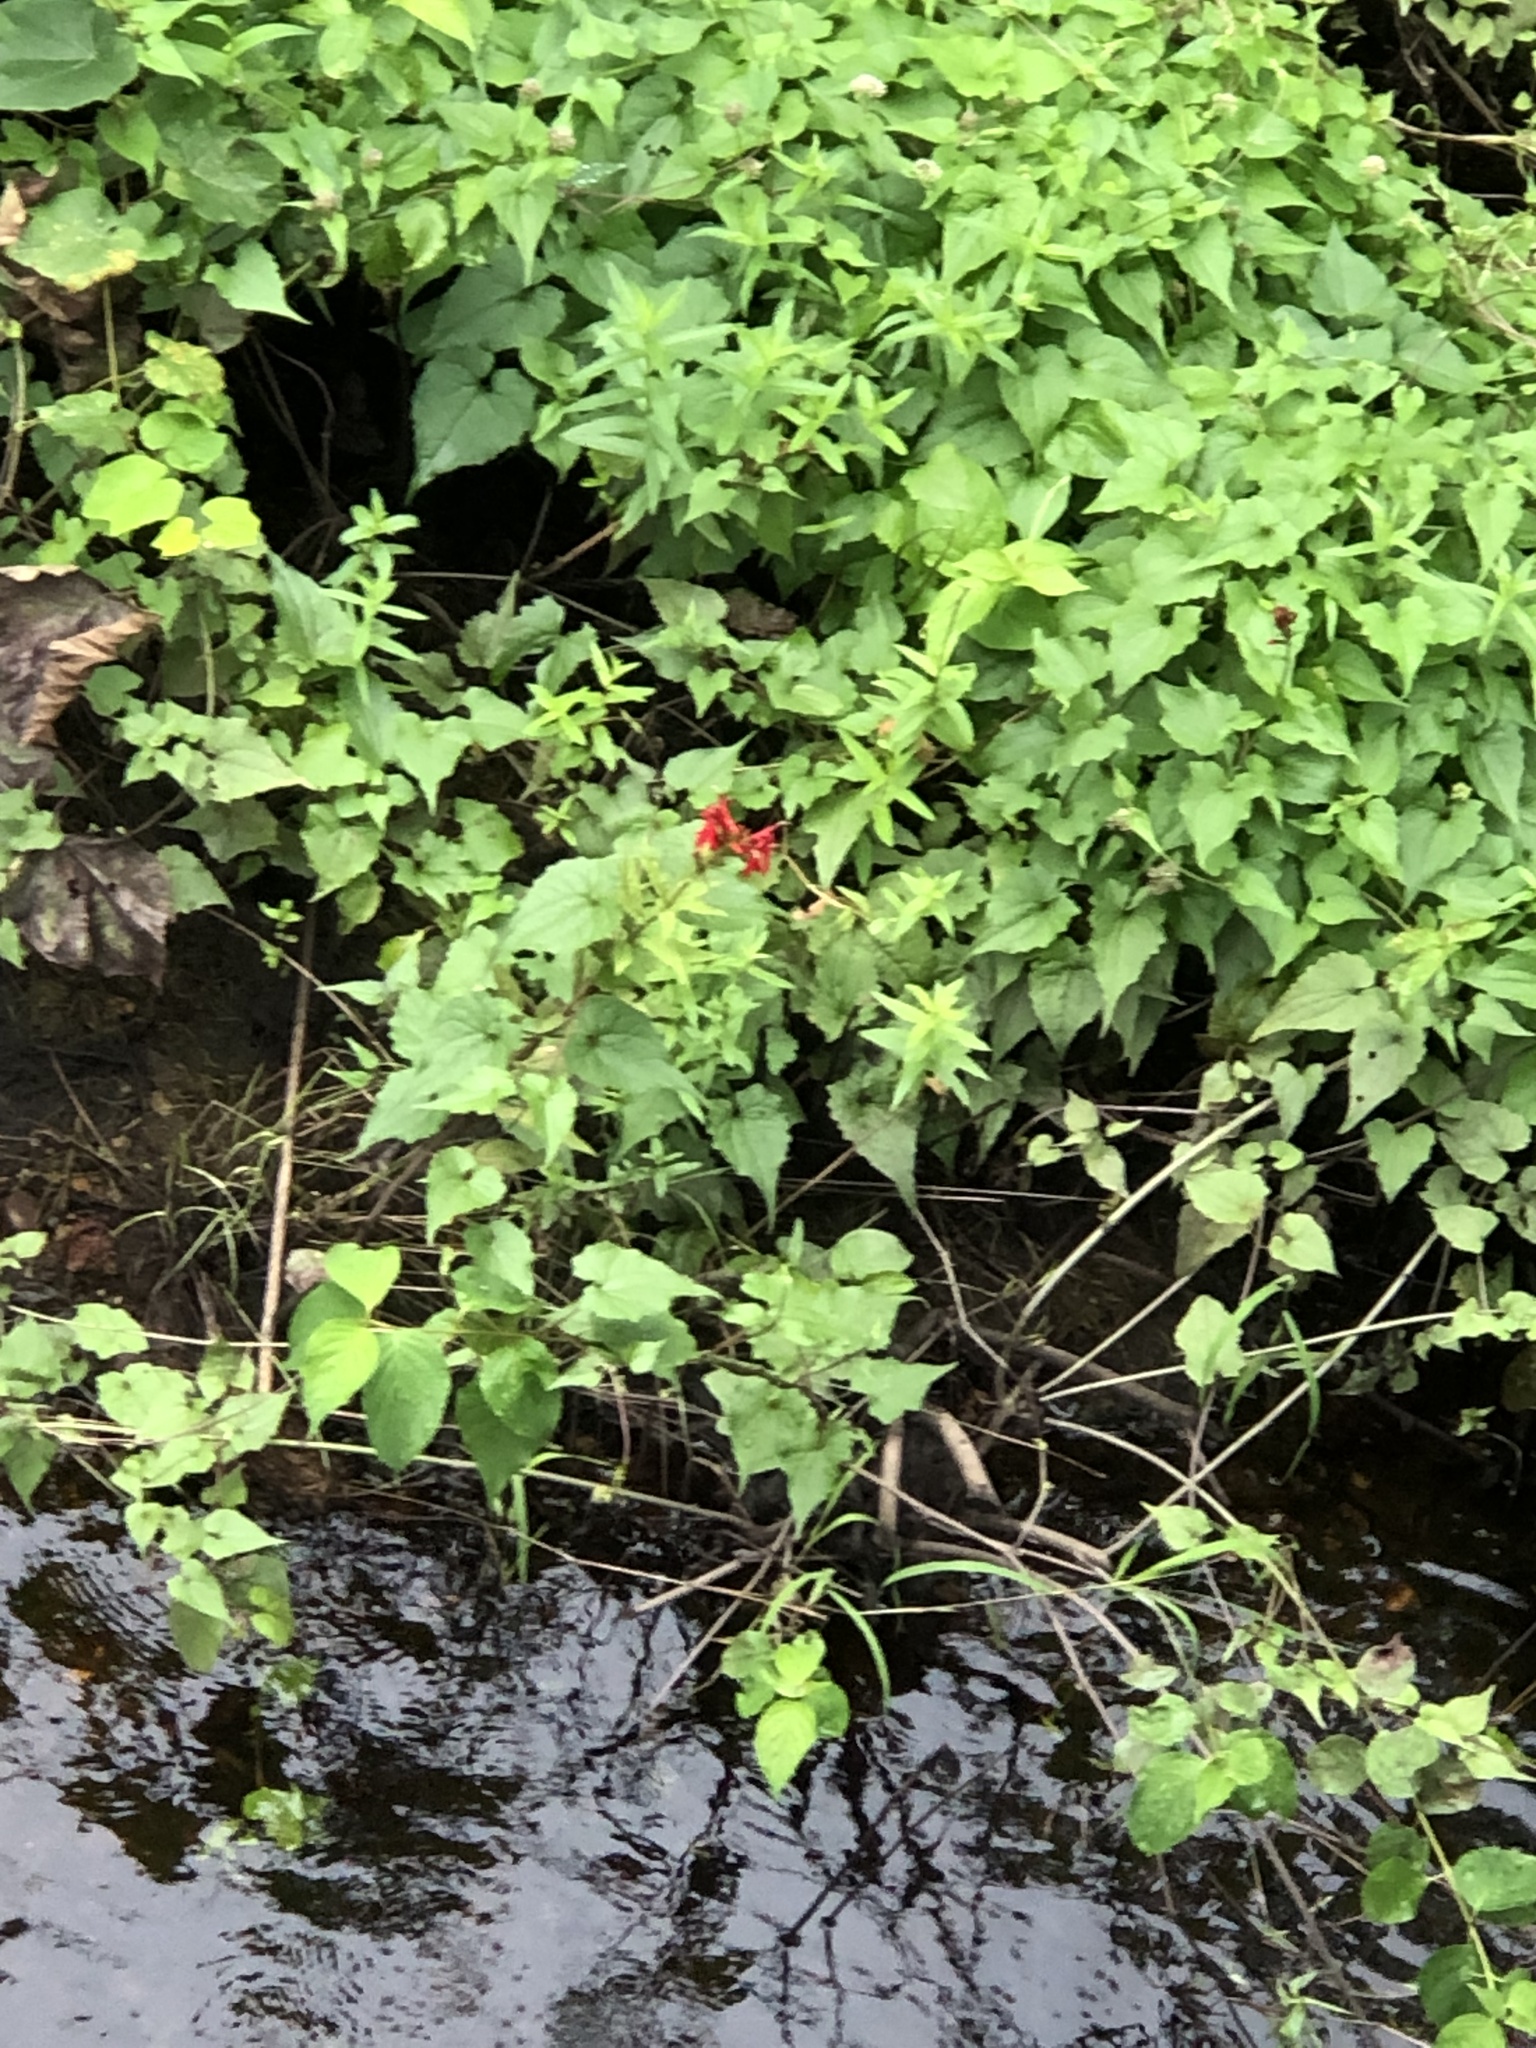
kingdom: Plantae
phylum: Tracheophyta
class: Magnoliopsida
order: Asterales
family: Campanulaceae
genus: Lobelia
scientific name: Lobelia cardinalis
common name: Cardinal flower
